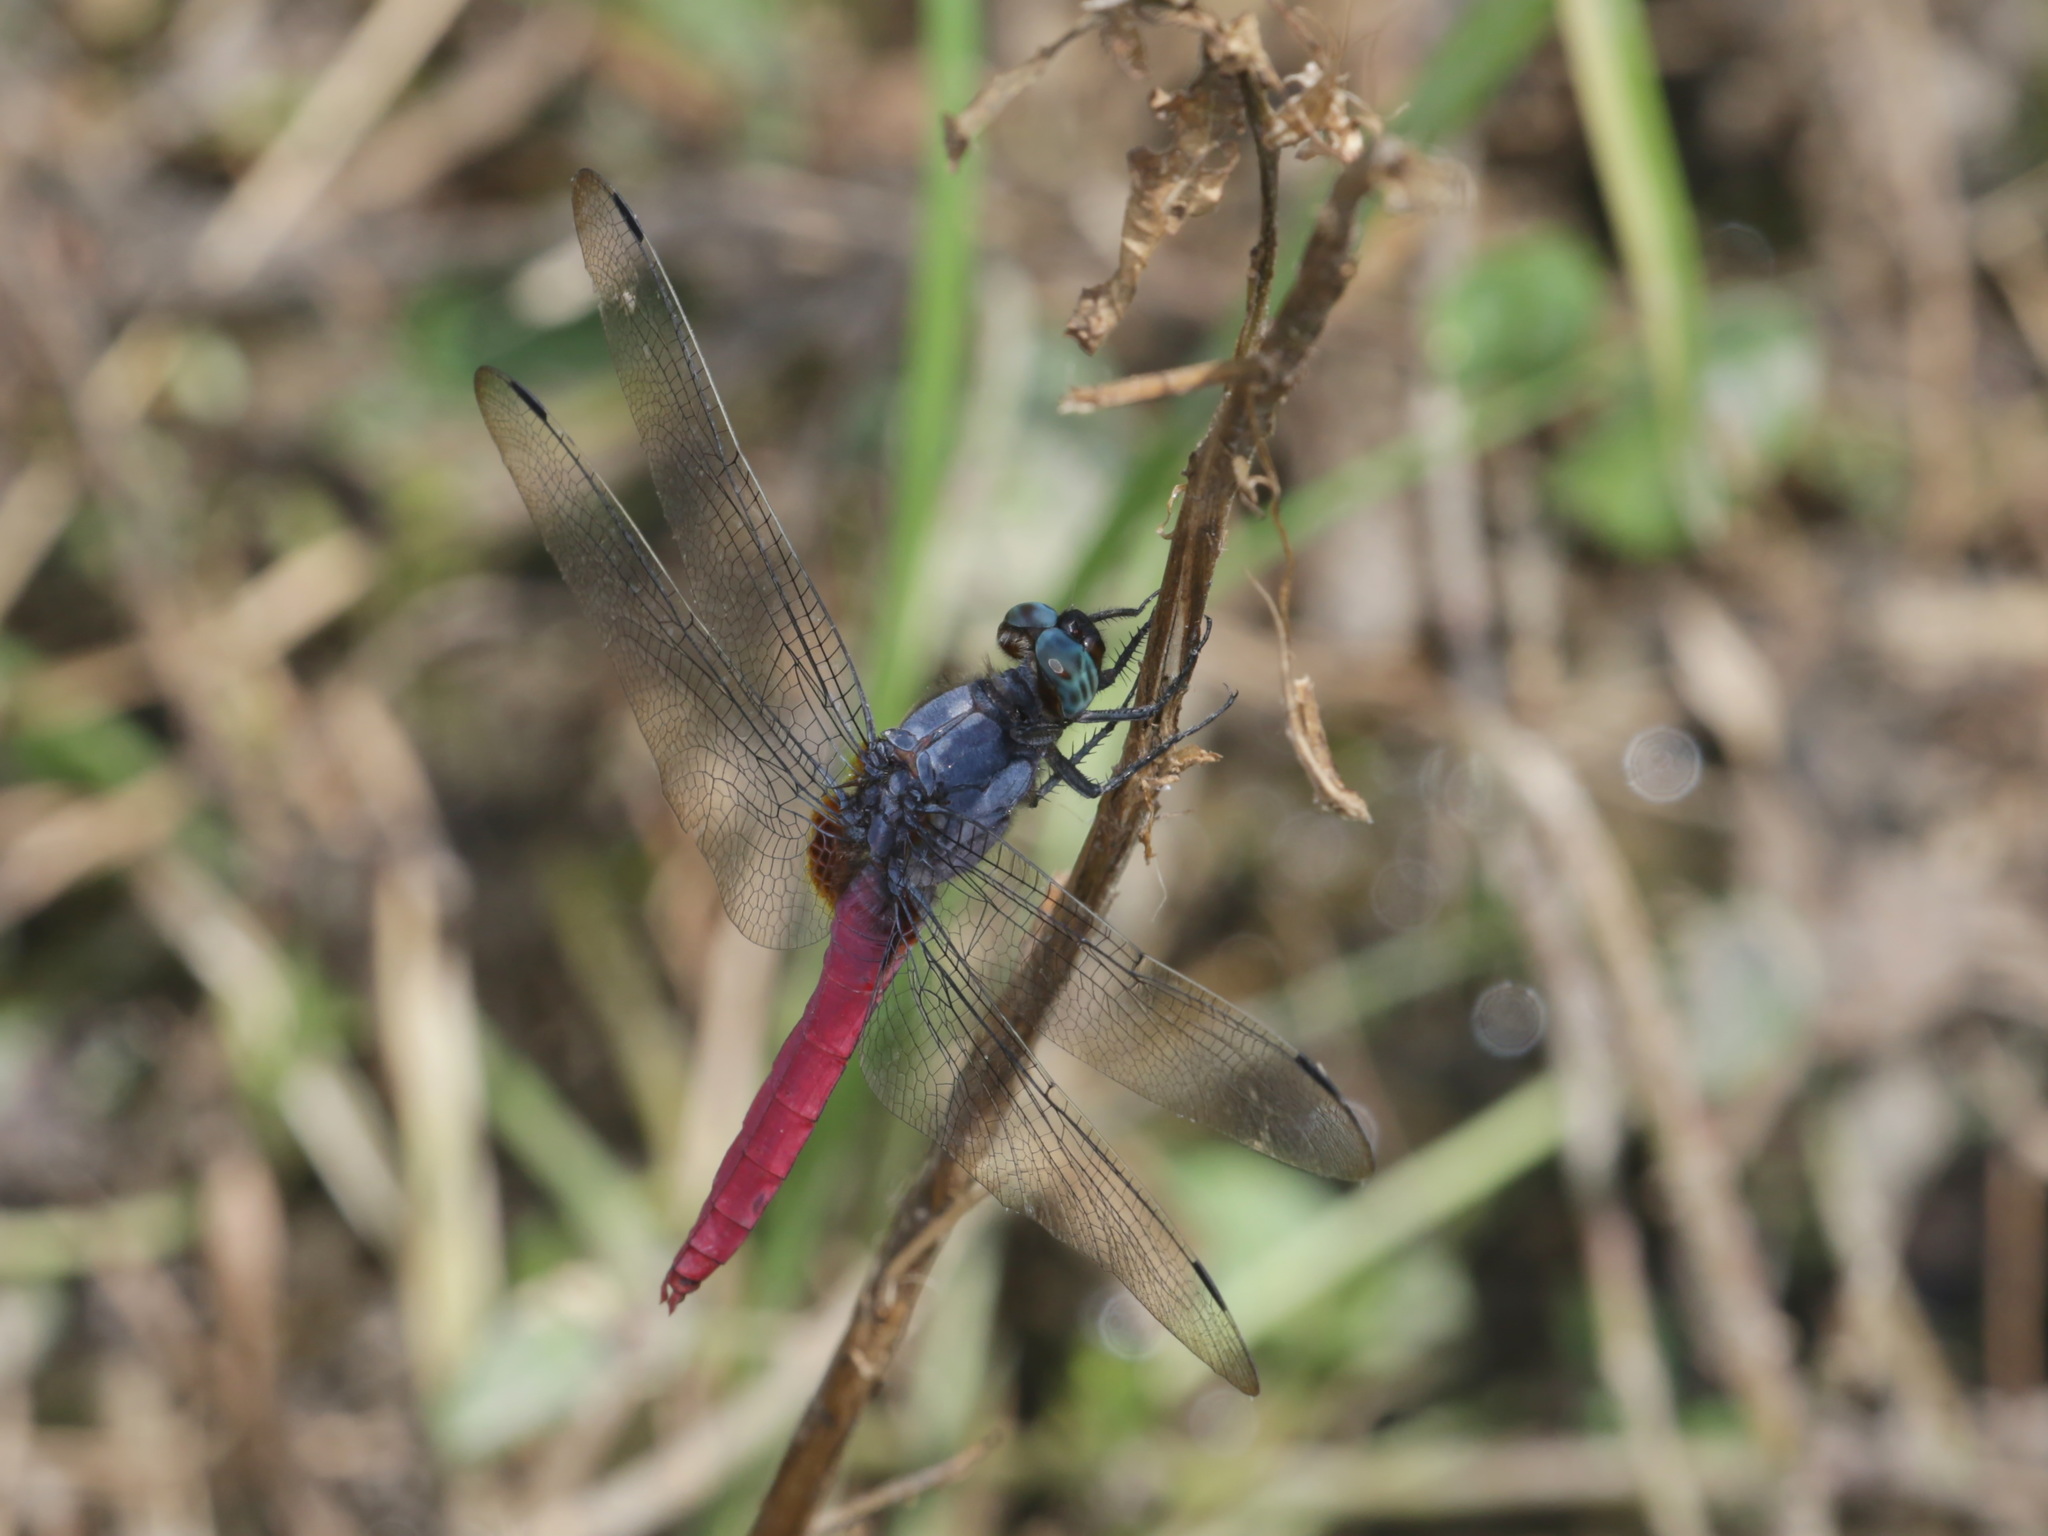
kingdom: Animalia
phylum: Arthropoda
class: Insecta
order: Odonata
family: Libellulidae
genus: Orthetrum
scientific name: Orthetrum pruinosum
